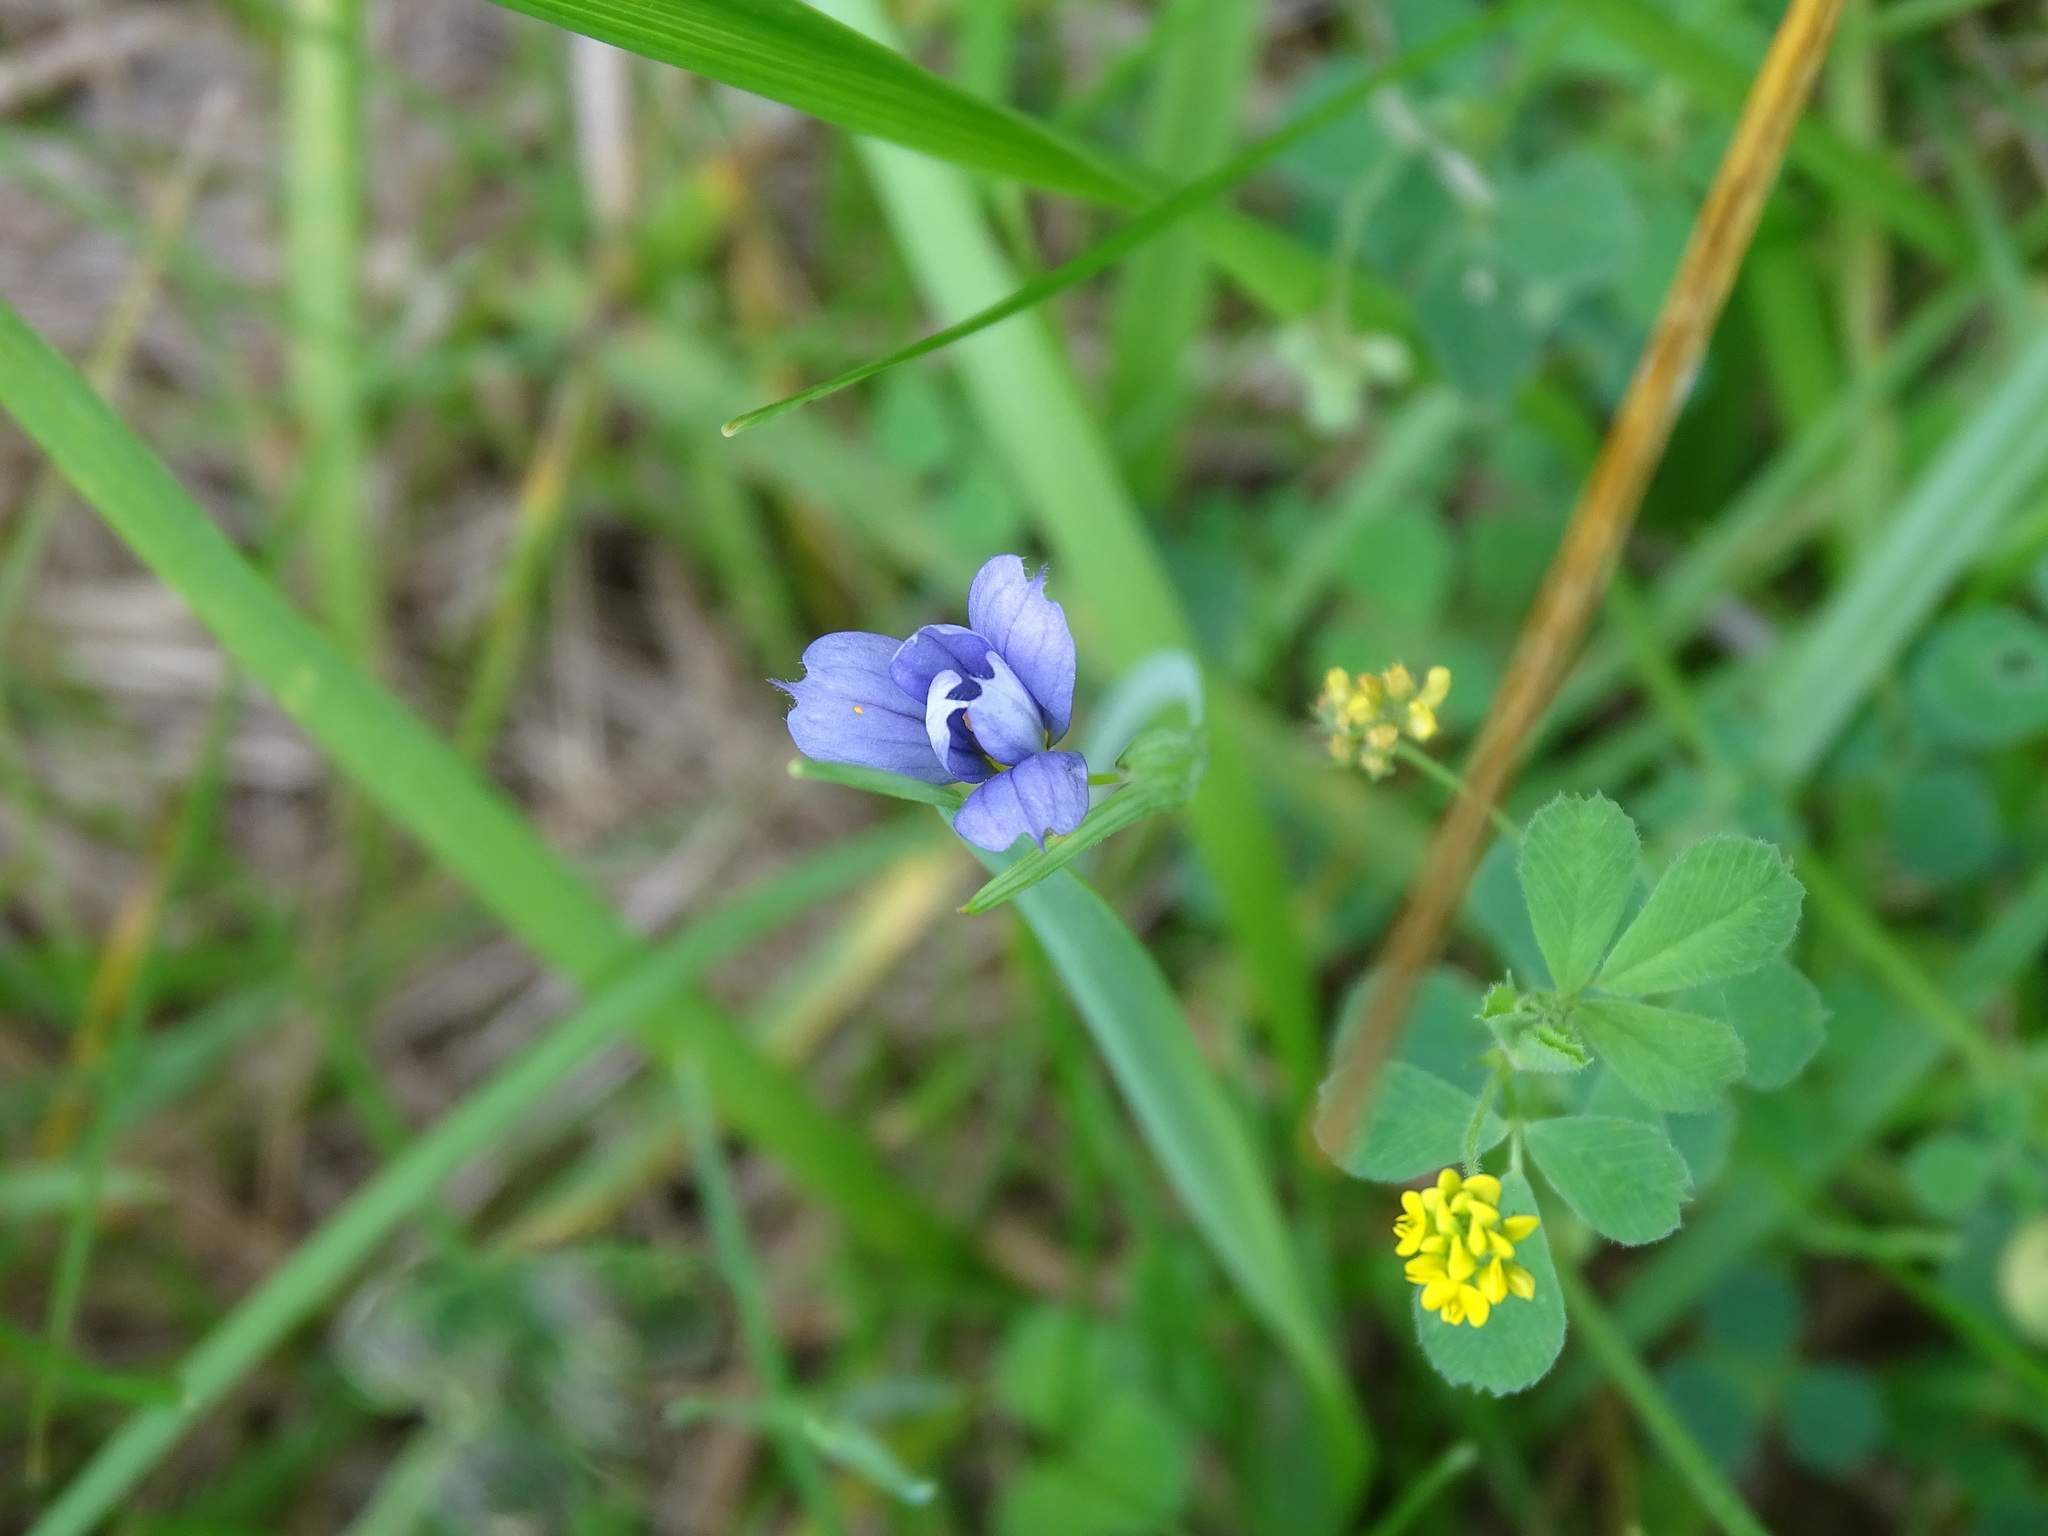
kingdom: Plantae
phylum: Tracheophyta
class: Liliopsida
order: Asparagales
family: Iridaceae
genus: Sisyrinchium
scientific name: Sisyrinchium montanum
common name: American blue-eyed-grass
